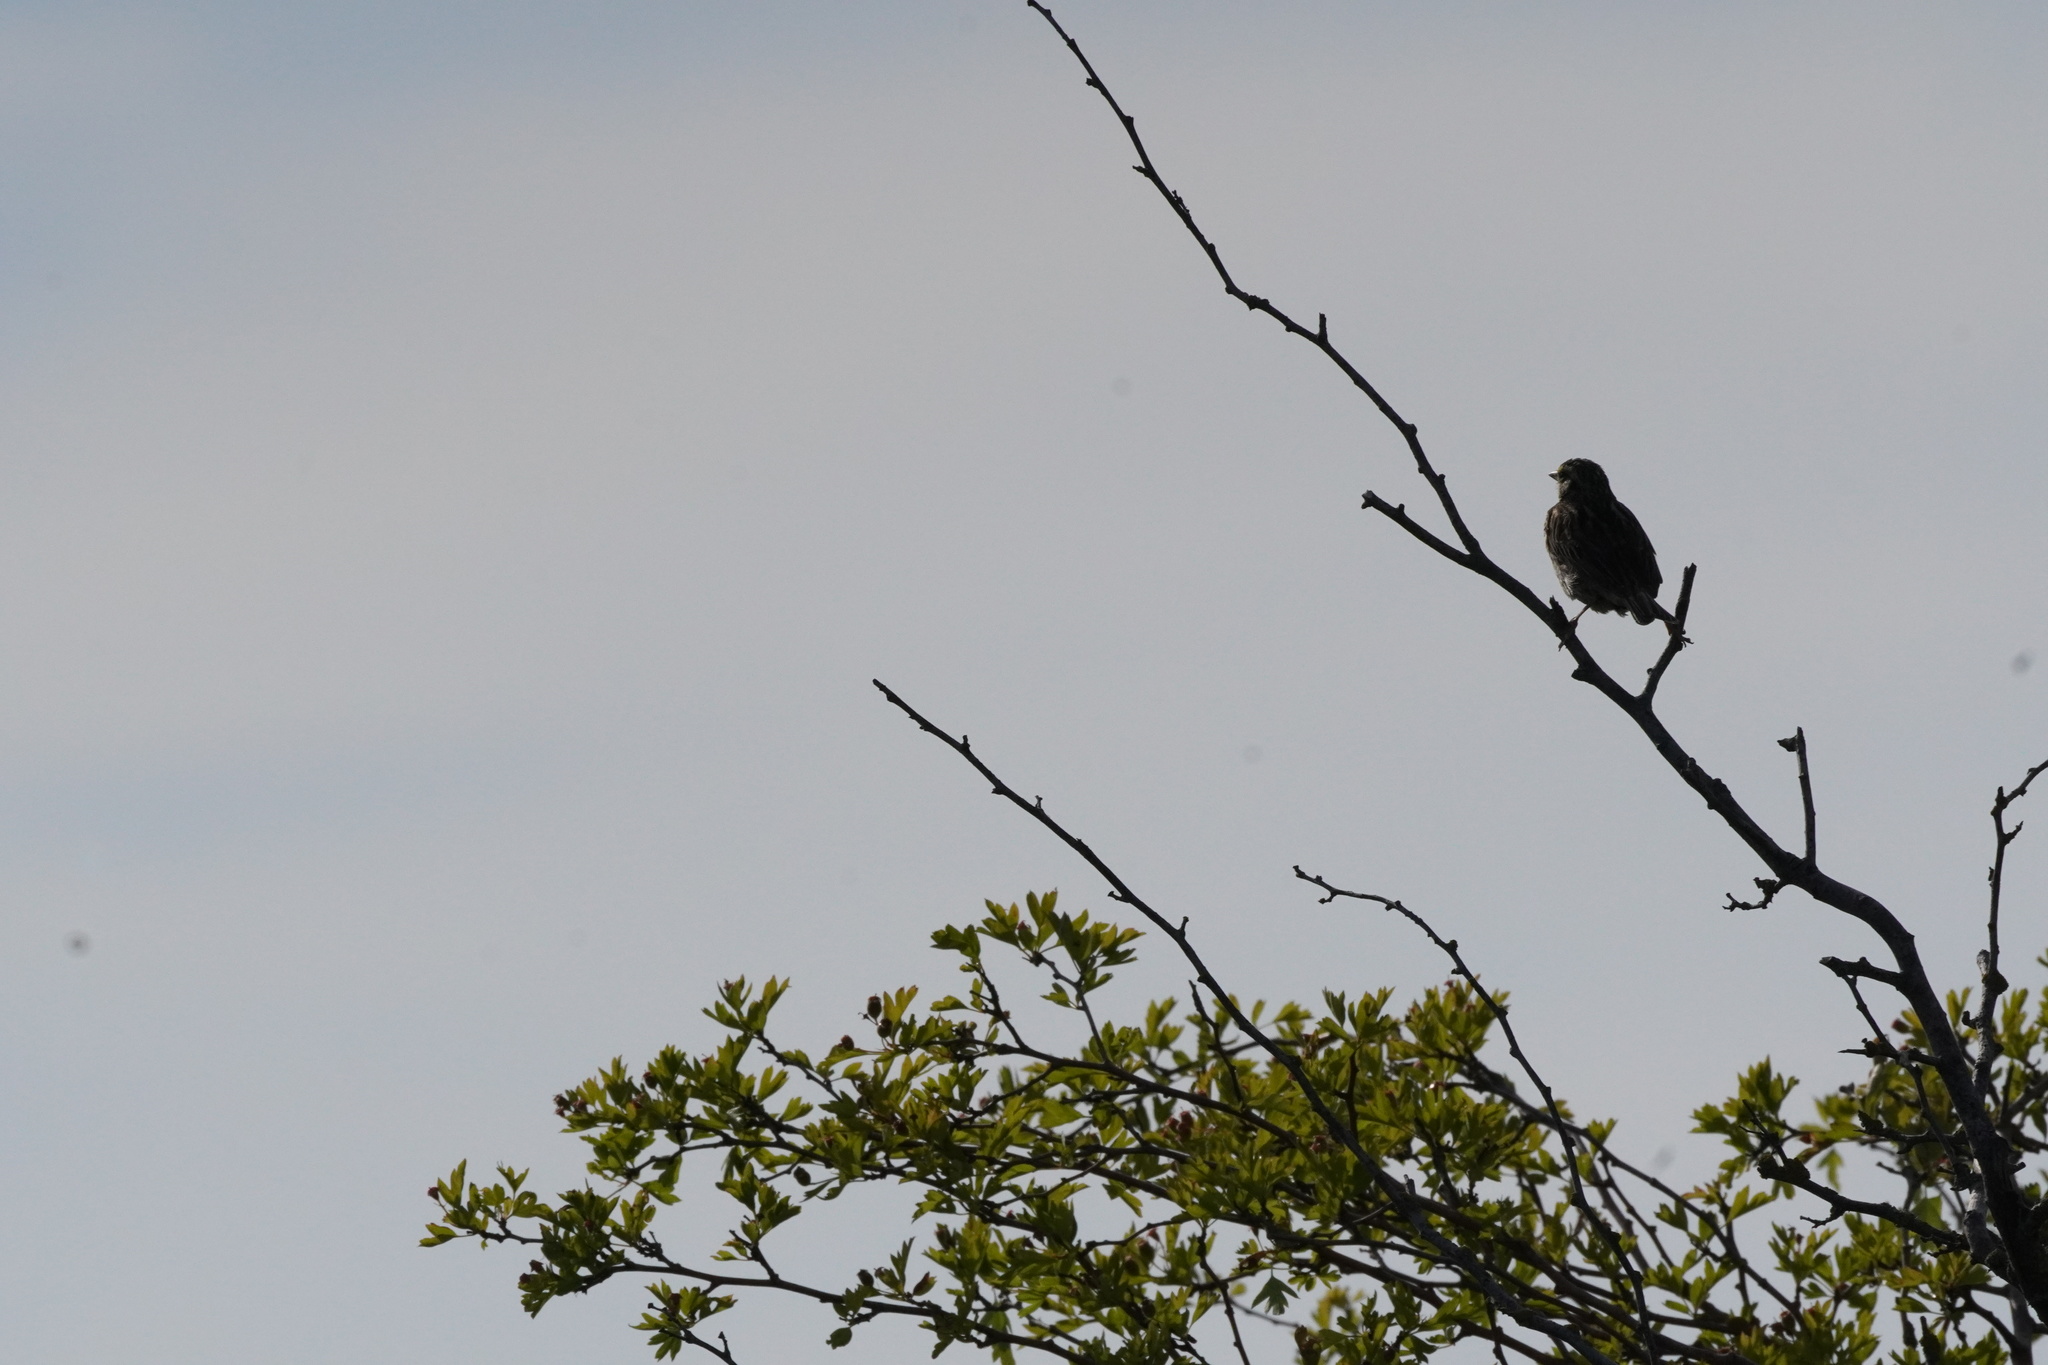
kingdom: Animalia
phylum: Chordata
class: Aves
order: Passeriformes
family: Passerellidae
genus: Passerculus
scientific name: Passerculus sandwichensis
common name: Savannah sparrow
